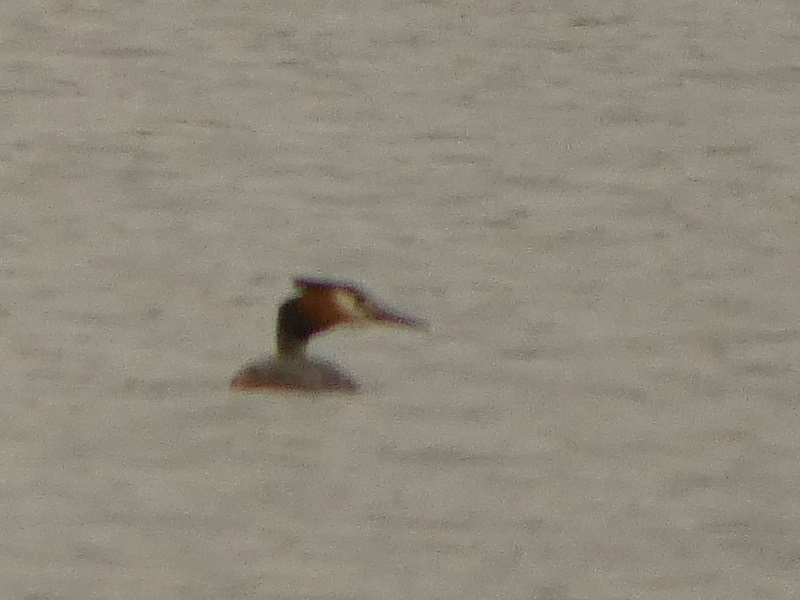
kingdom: Animalia
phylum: Chordata
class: Aves
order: Podicipediformes
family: Podicipedidae
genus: Podiceps
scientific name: Podiceps cristatus
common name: Great crested grebe
